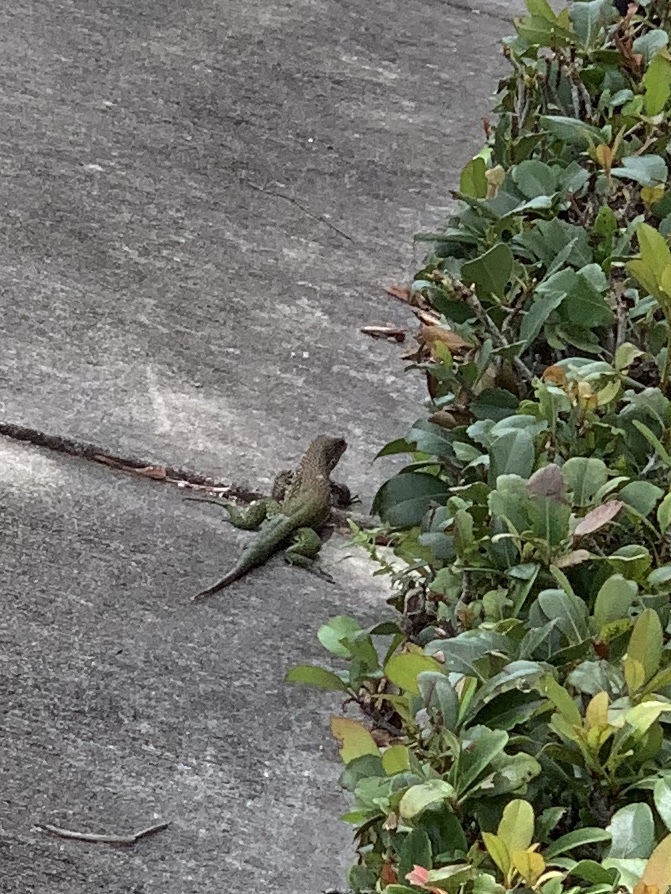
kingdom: Animalia
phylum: Chordata
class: Squamata
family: Teiidae
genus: Ameiva
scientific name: Ameiva ameiva
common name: Giant ameiva
